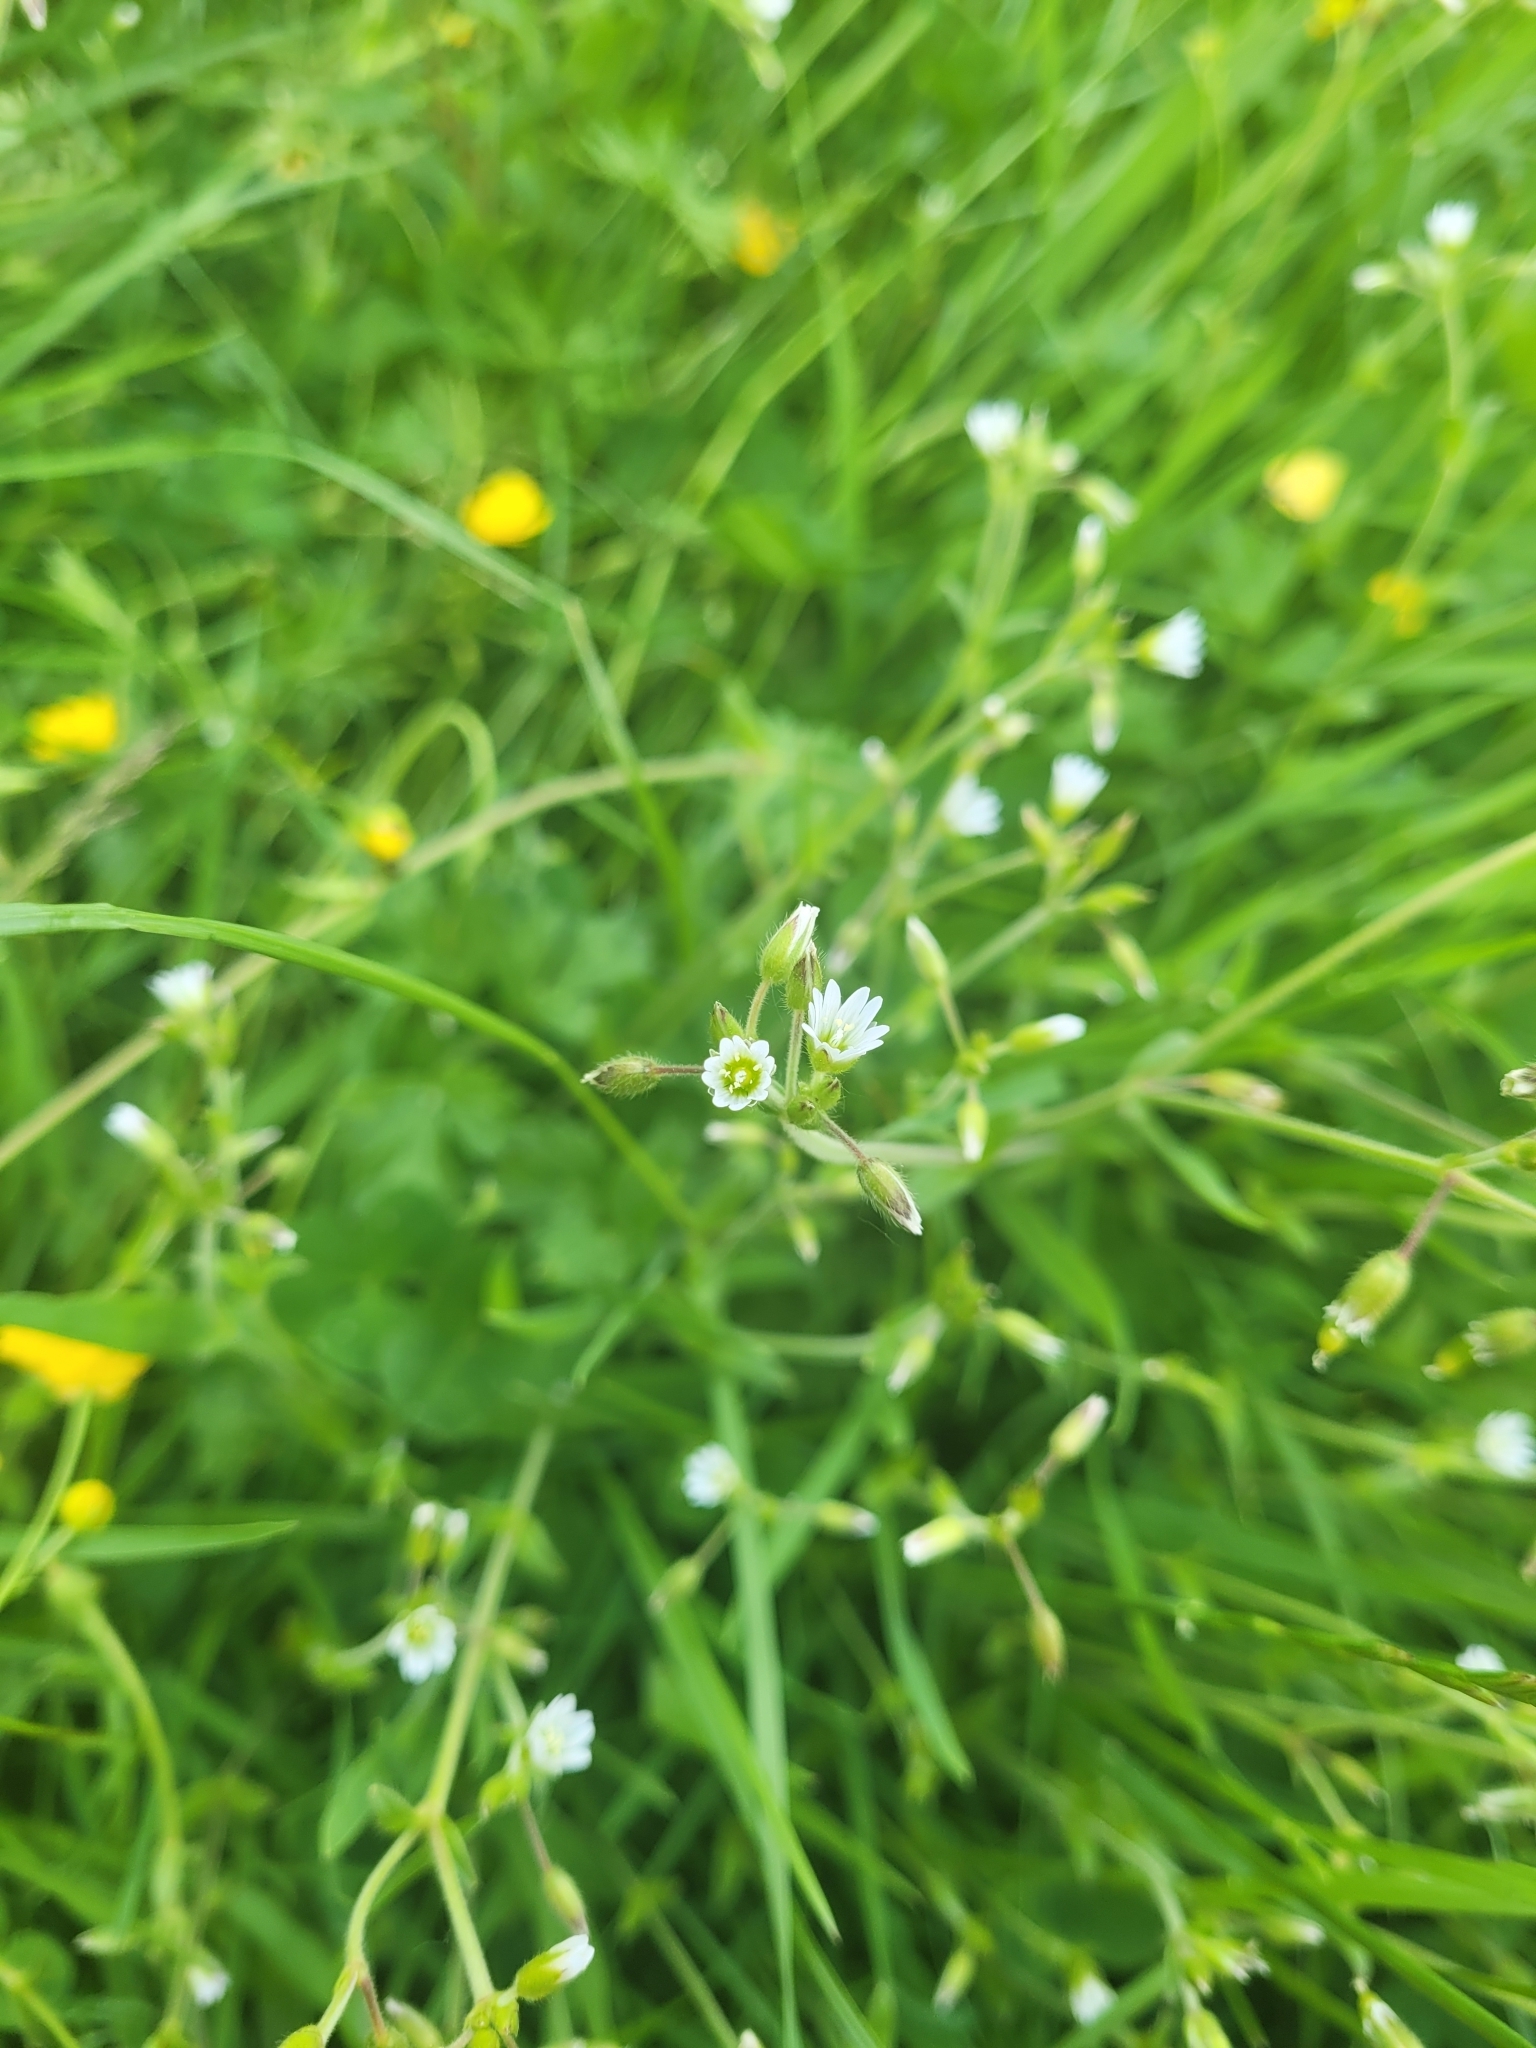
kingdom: Plantae
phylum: Tracheophyta
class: Magnoliopsida
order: Caryophyllales
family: Caryophyllaceae
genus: Cerastium
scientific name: Cerastium fontanum
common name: Common mouse-ear
